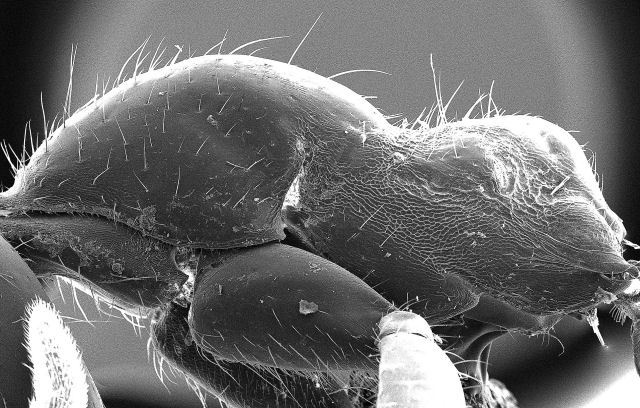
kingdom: Animalia
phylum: Arthropoda
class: Insecta
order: Hymenoptera
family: Formicidae
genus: Neivamyrmex
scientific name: Neivamyrmex graciellae
